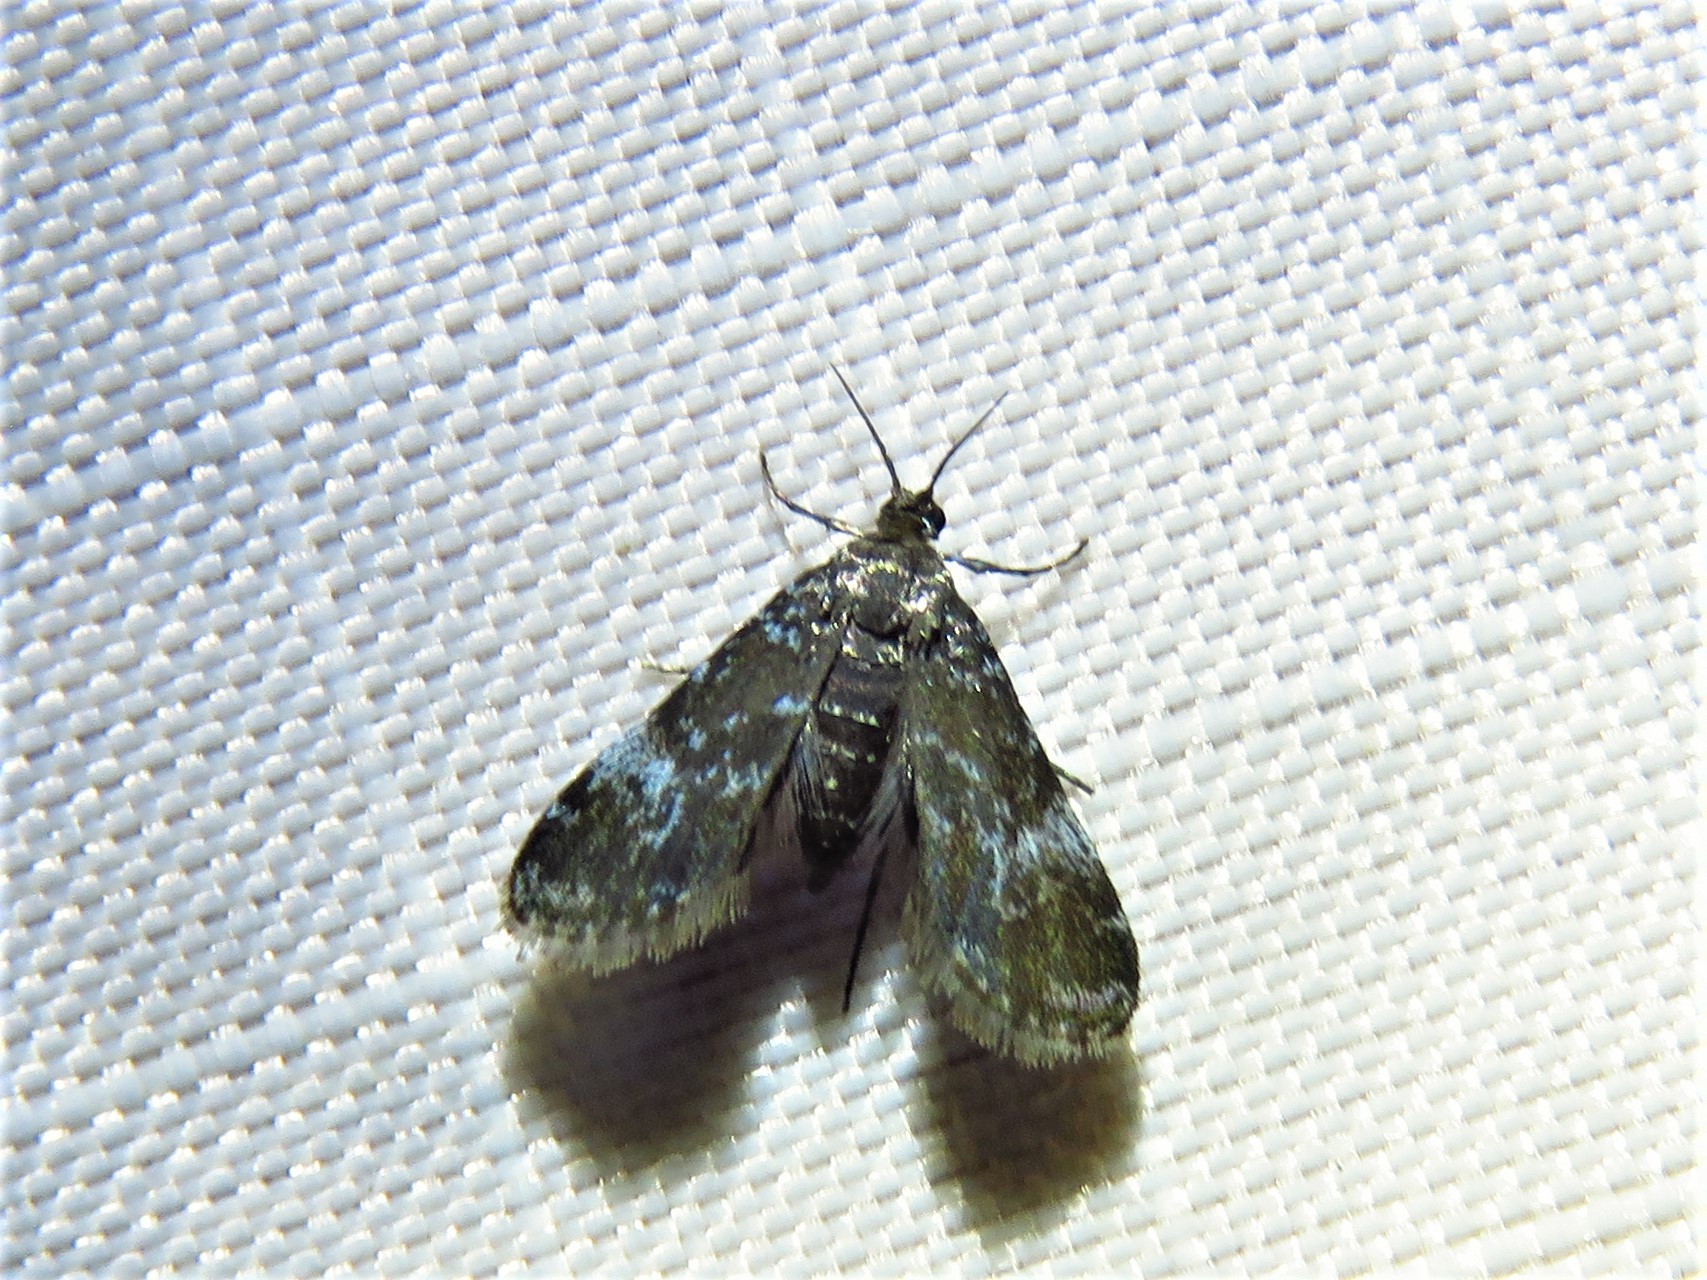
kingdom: Animalia
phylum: Arthropoda
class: Insecta
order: Lepidoptera
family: Crambidae
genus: Elophila
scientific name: Elophila tinealis
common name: Black duckweed moth
